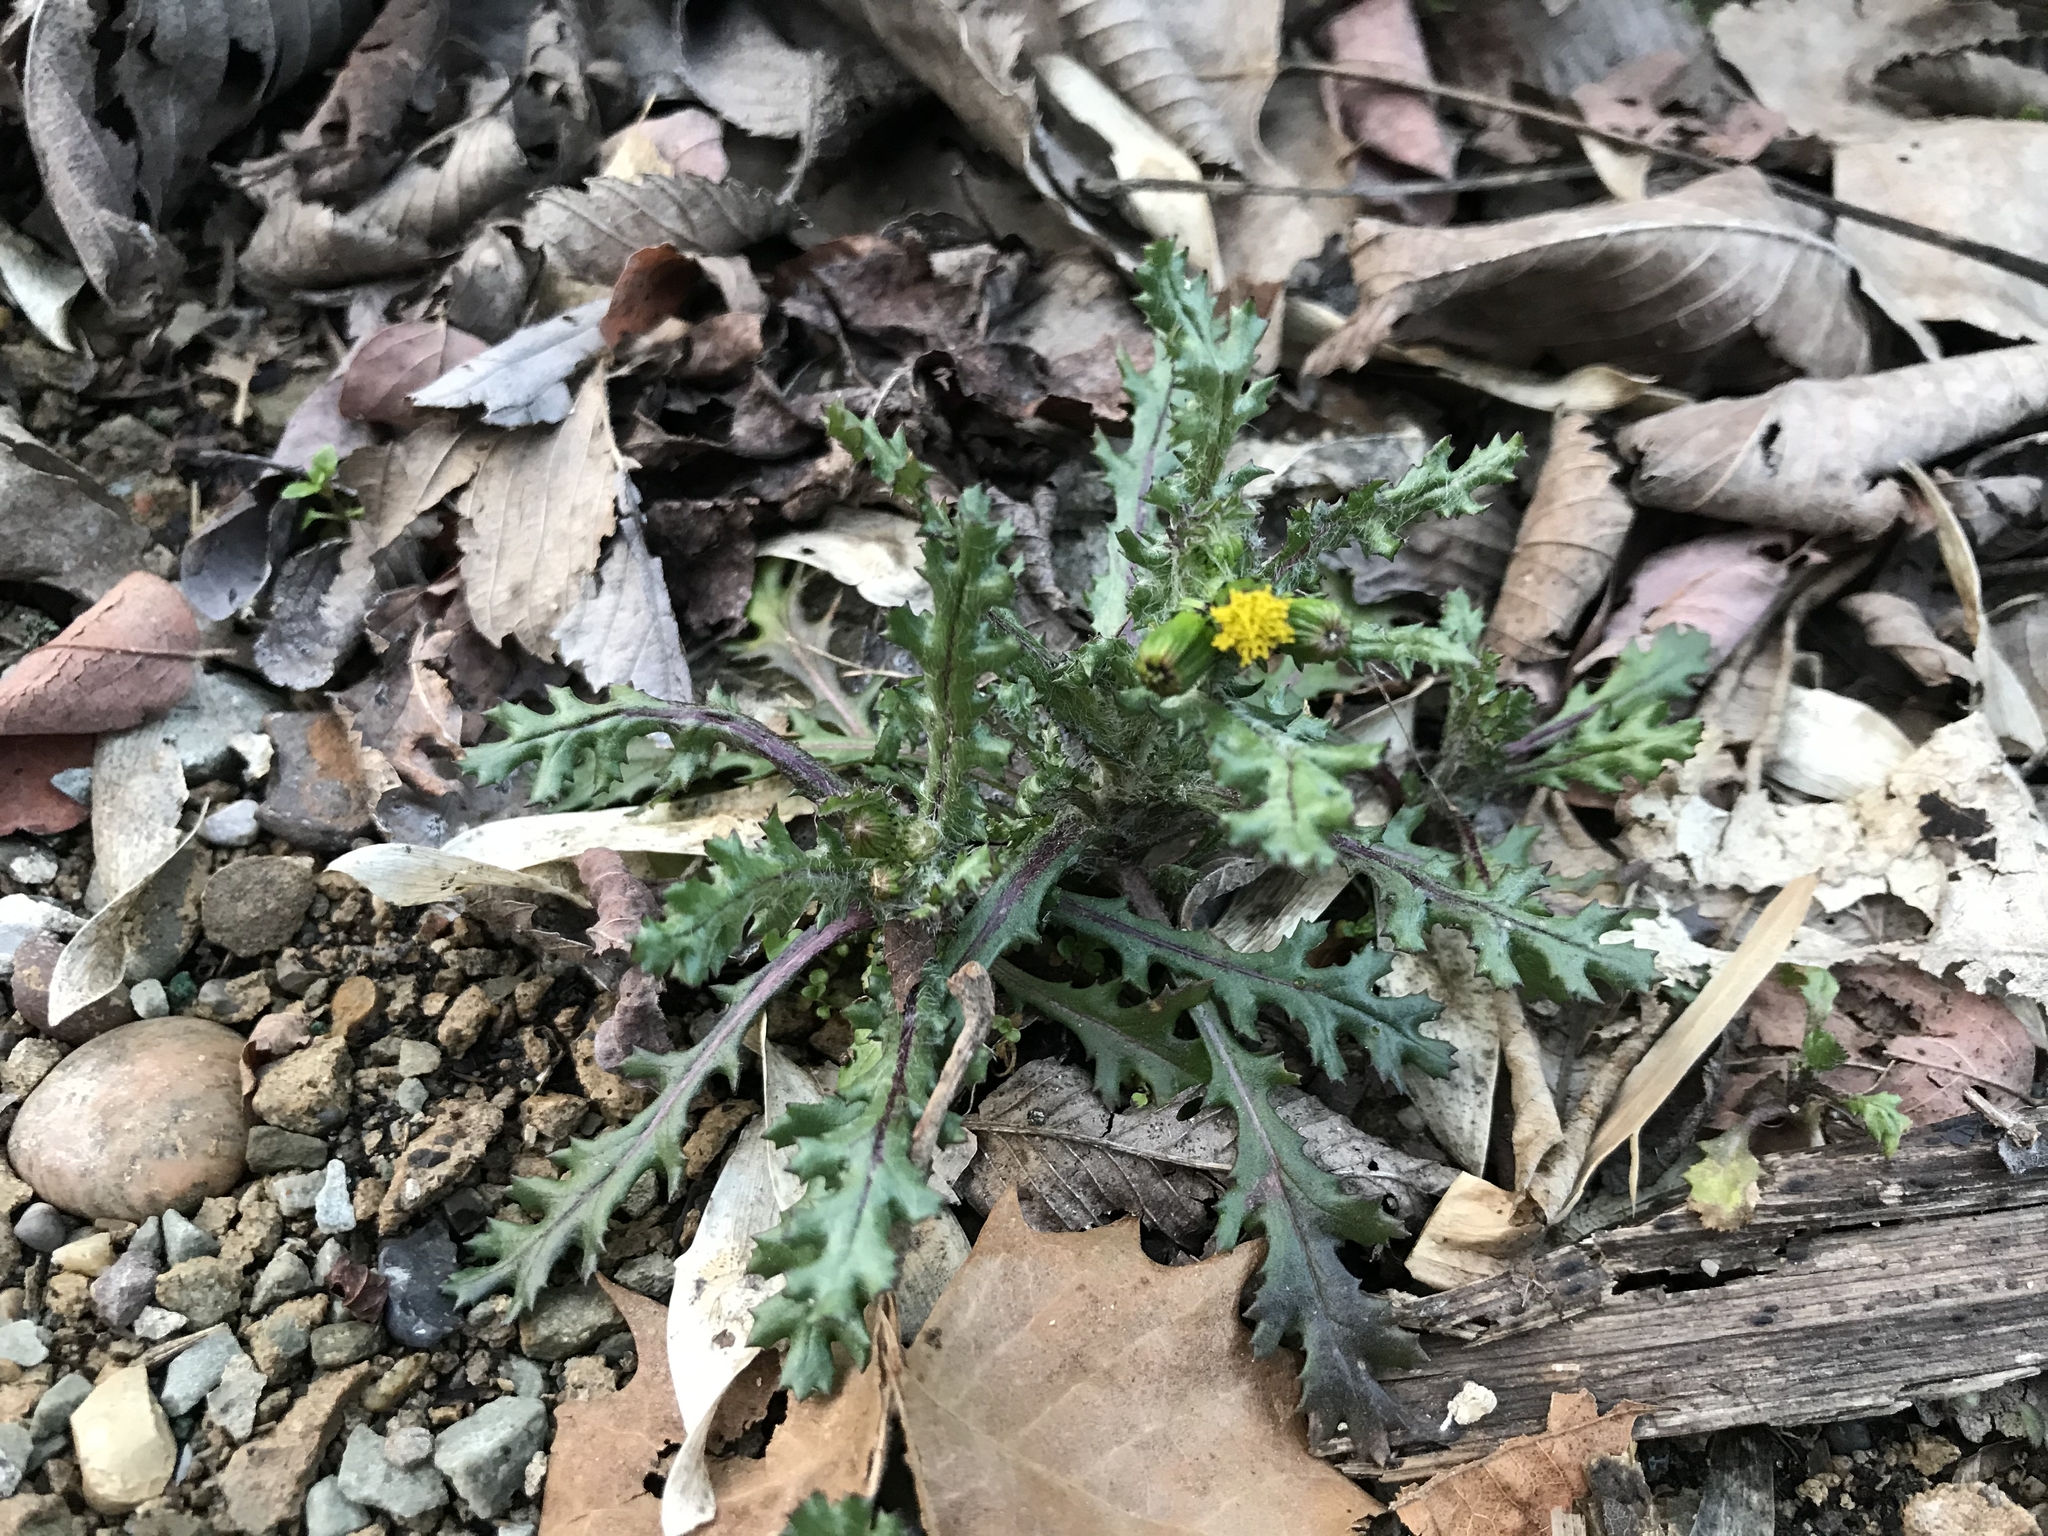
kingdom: Plantae
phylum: Tracheophyta
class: Magnoliopsida
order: Asterales
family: Asteraceae
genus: Senecio
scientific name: Senecio vulgaris
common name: Old-man-in-the-spring
